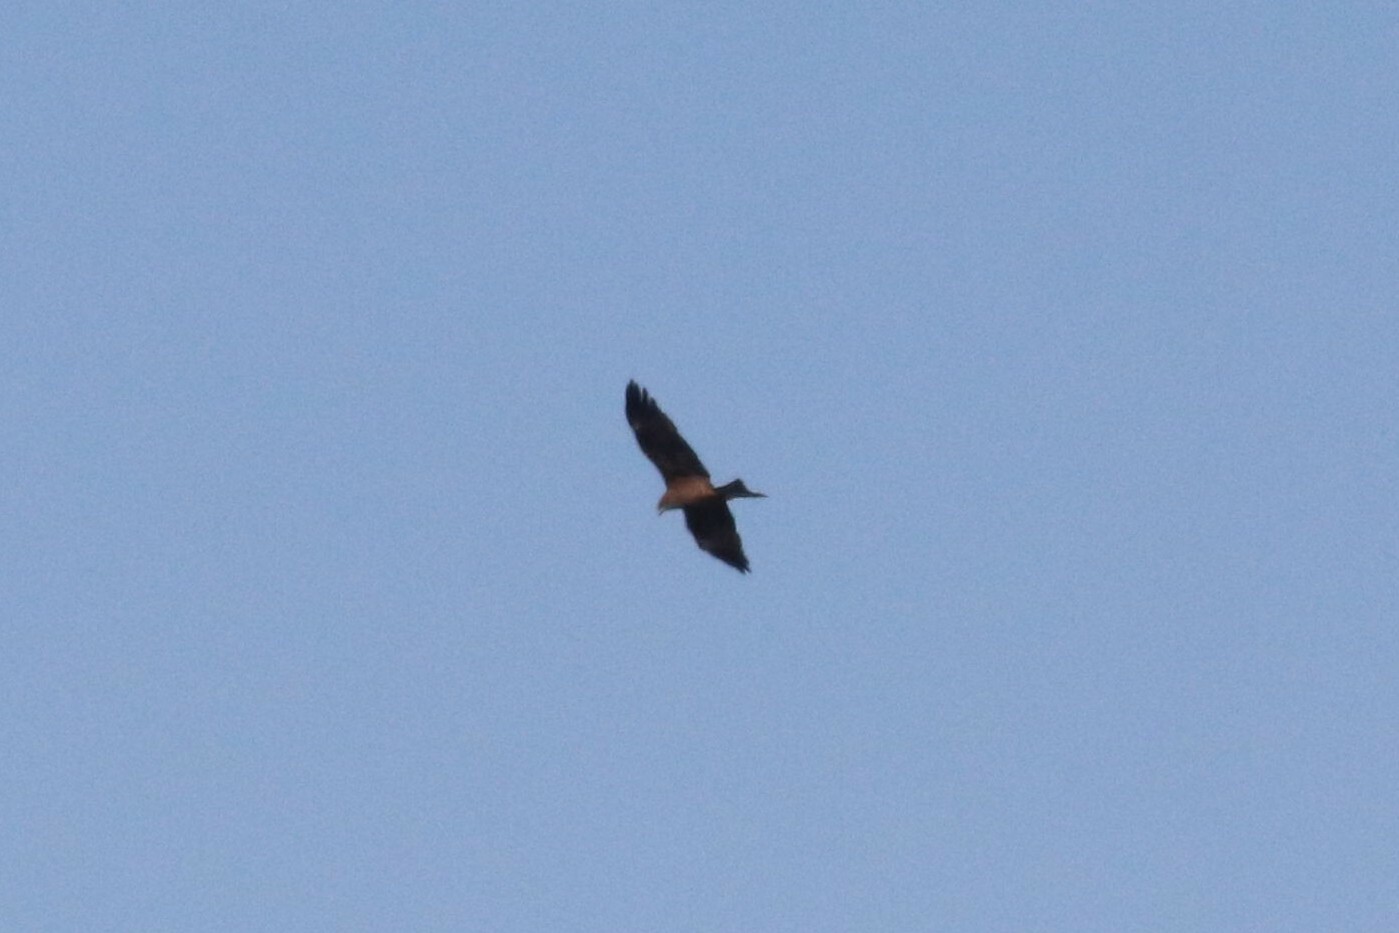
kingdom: Animalia
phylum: Chordata
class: Aves
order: Accipitriformes
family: Accipitridae
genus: Milvus
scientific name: Milvus migrans
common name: Black kite
